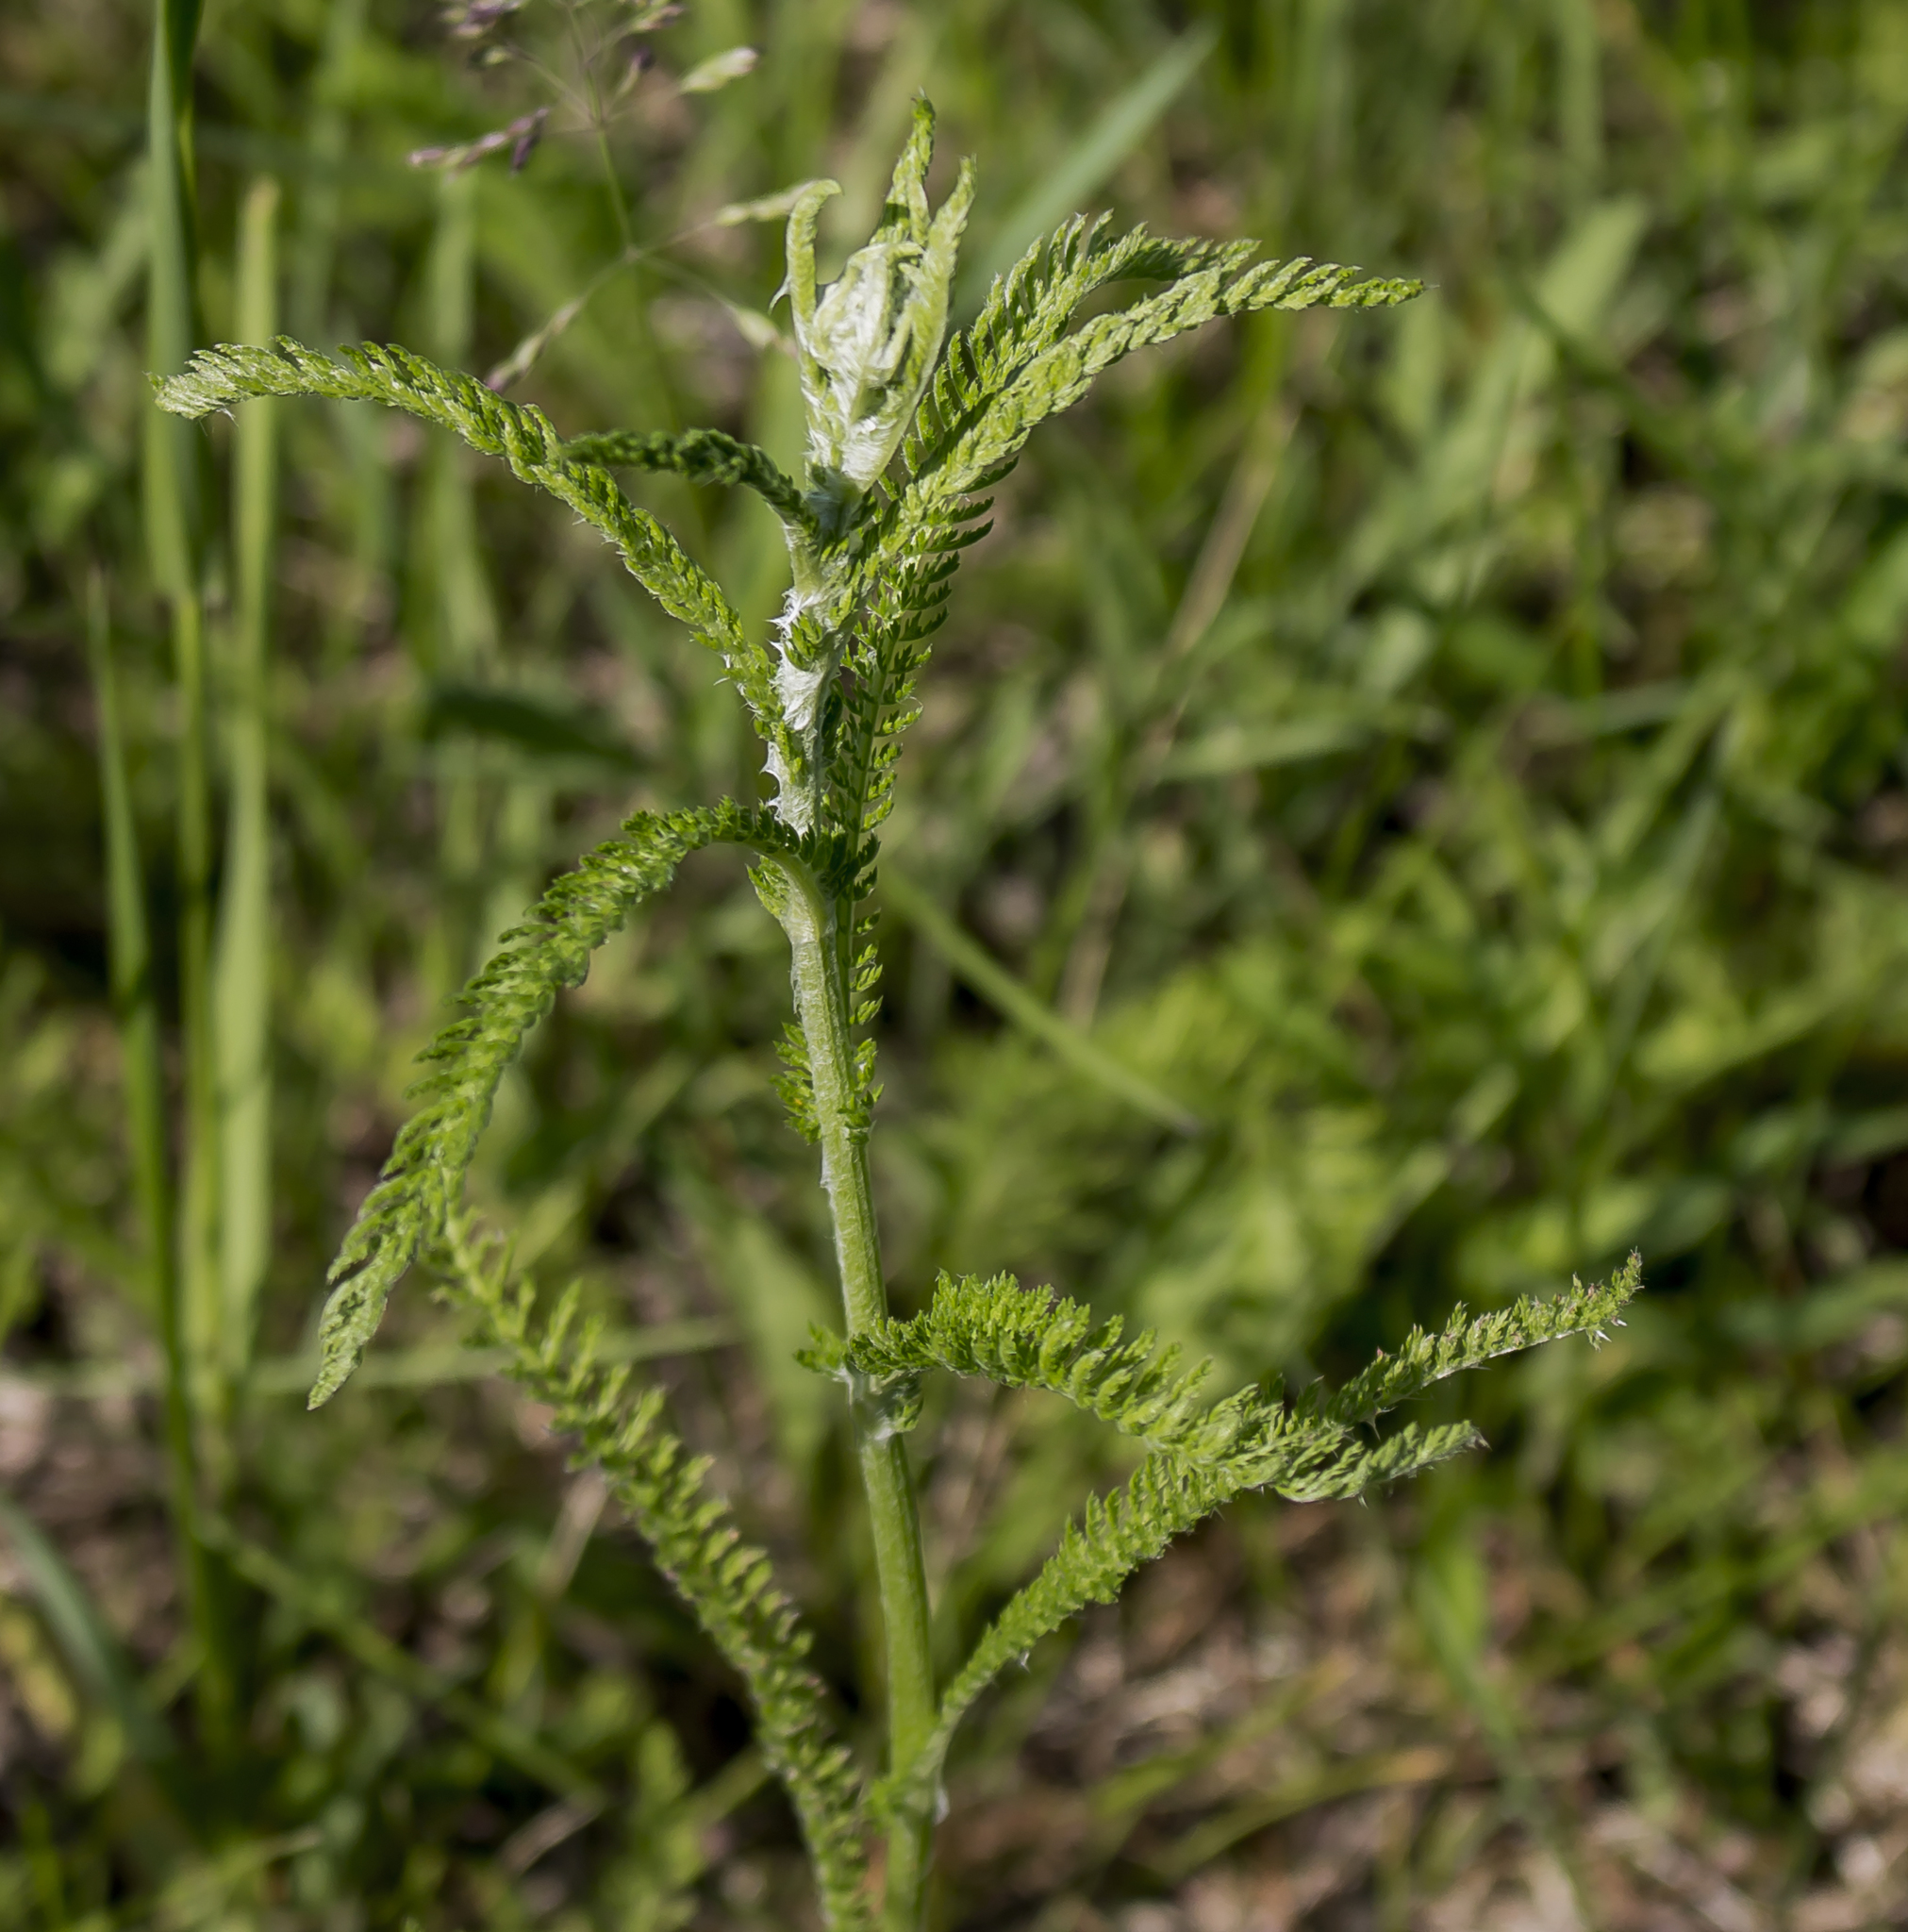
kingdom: Plantae
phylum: Tracheophyta
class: Magnoliopsida
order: Asterales
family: Asteraceae
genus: Achillea
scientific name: Achillea millefolium
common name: Yarrow
